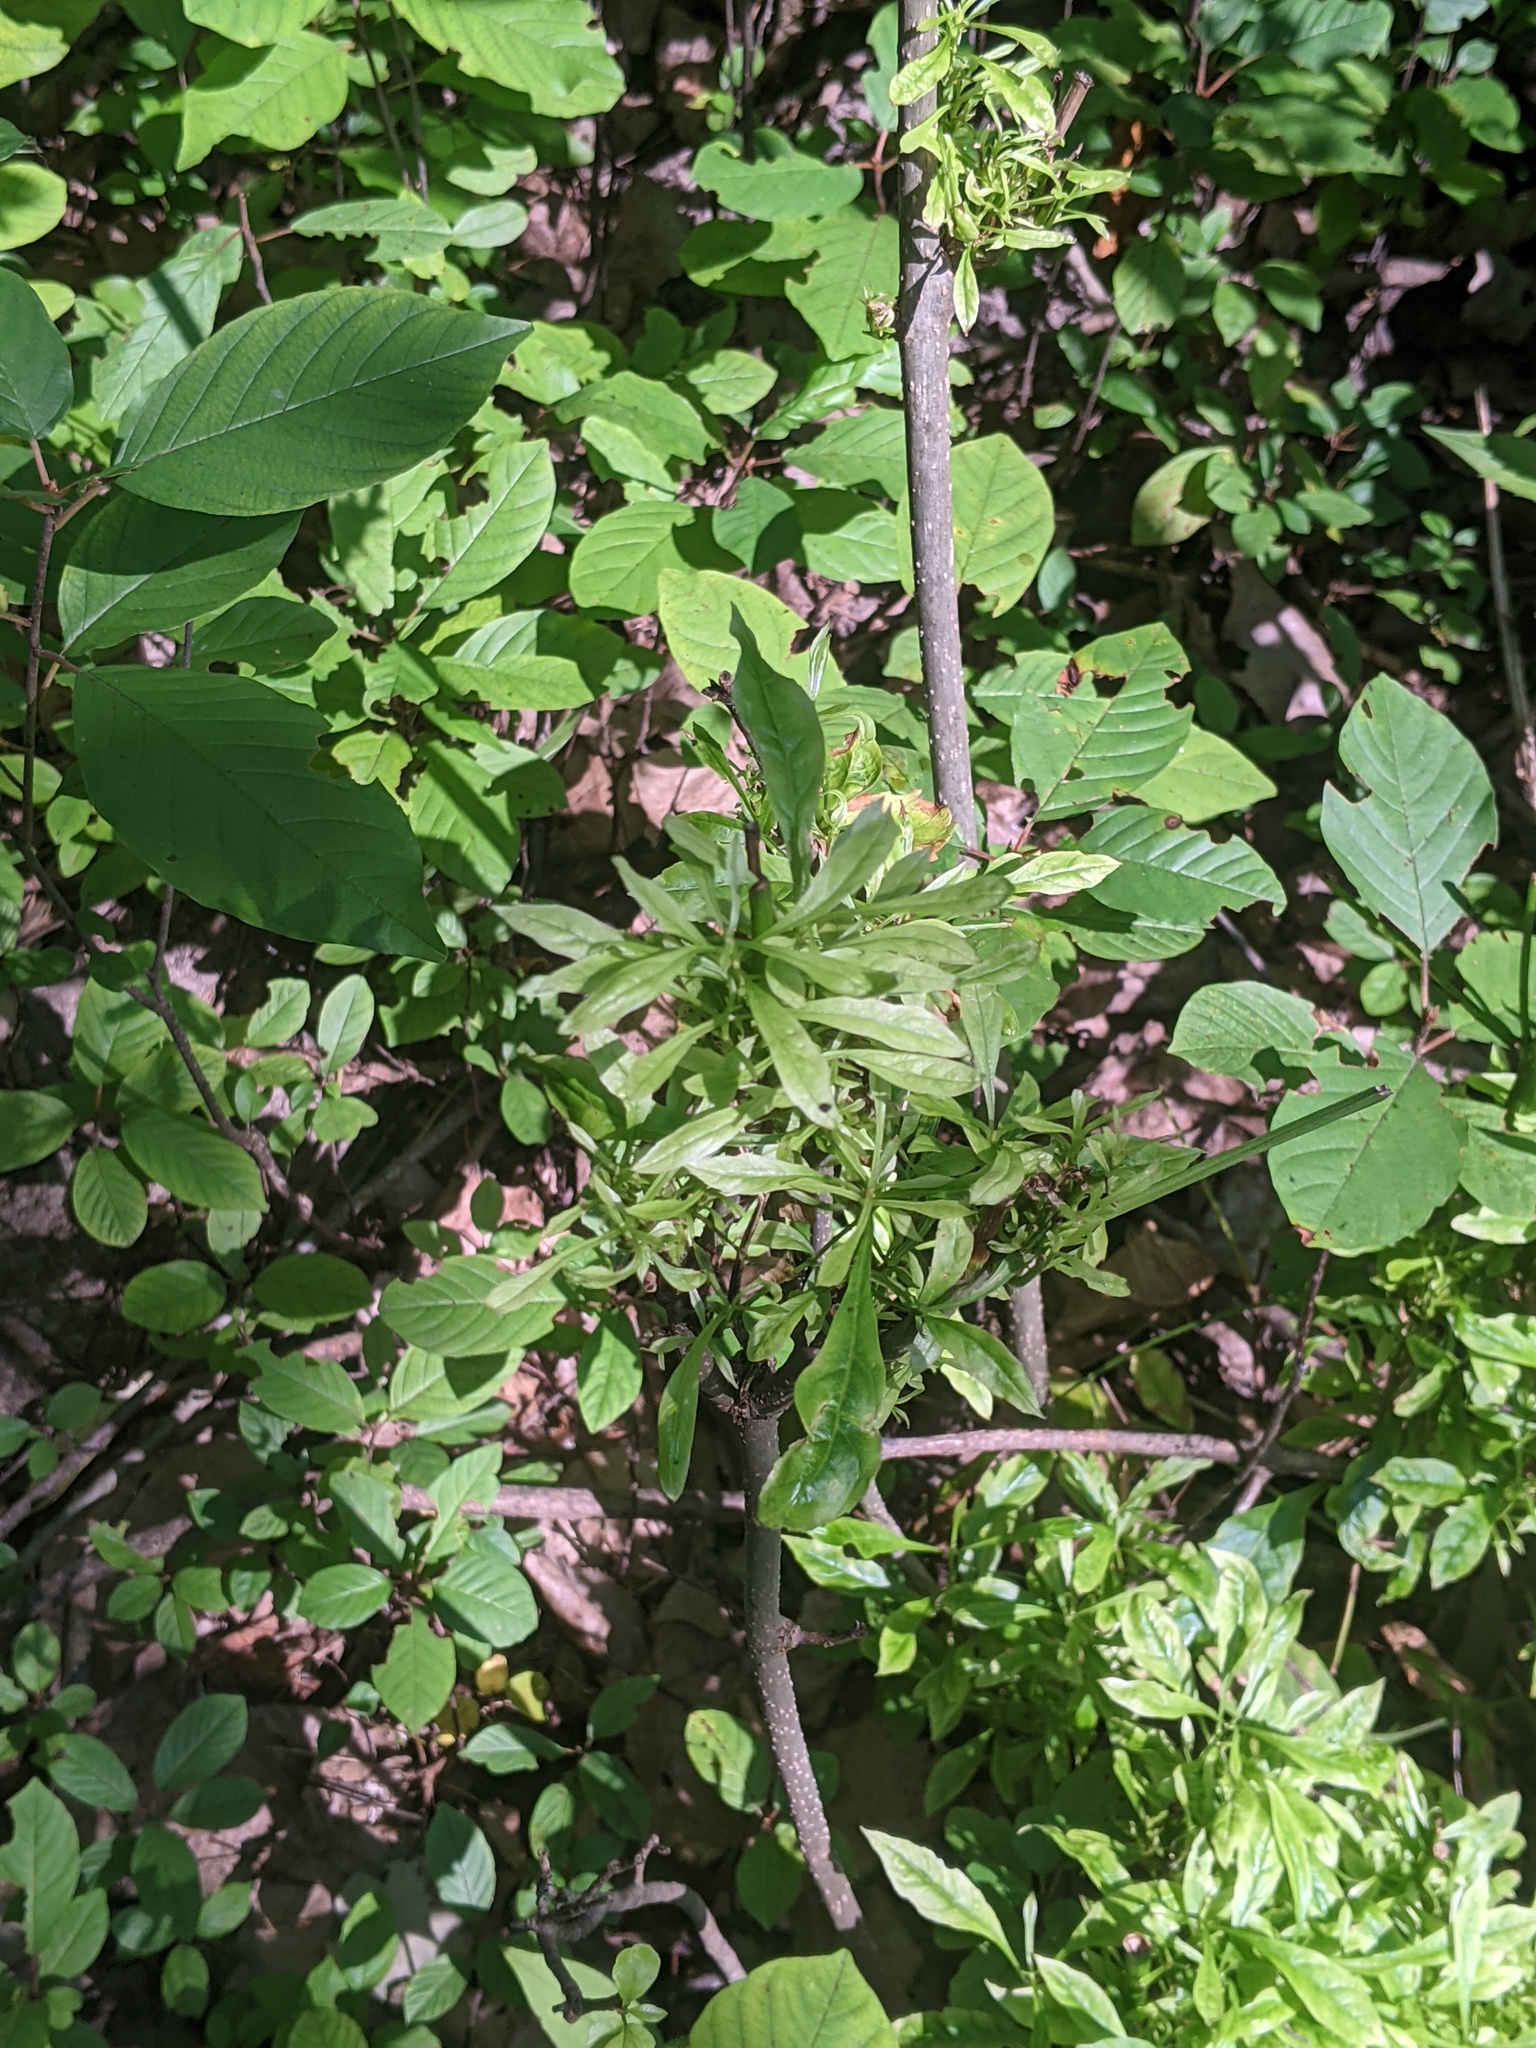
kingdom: Bacteria
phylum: Firmicutes
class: Bacilli
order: Acholeplasmatales
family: Acholeplasmataceae
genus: Phytoplasma
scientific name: Phytoplasma
